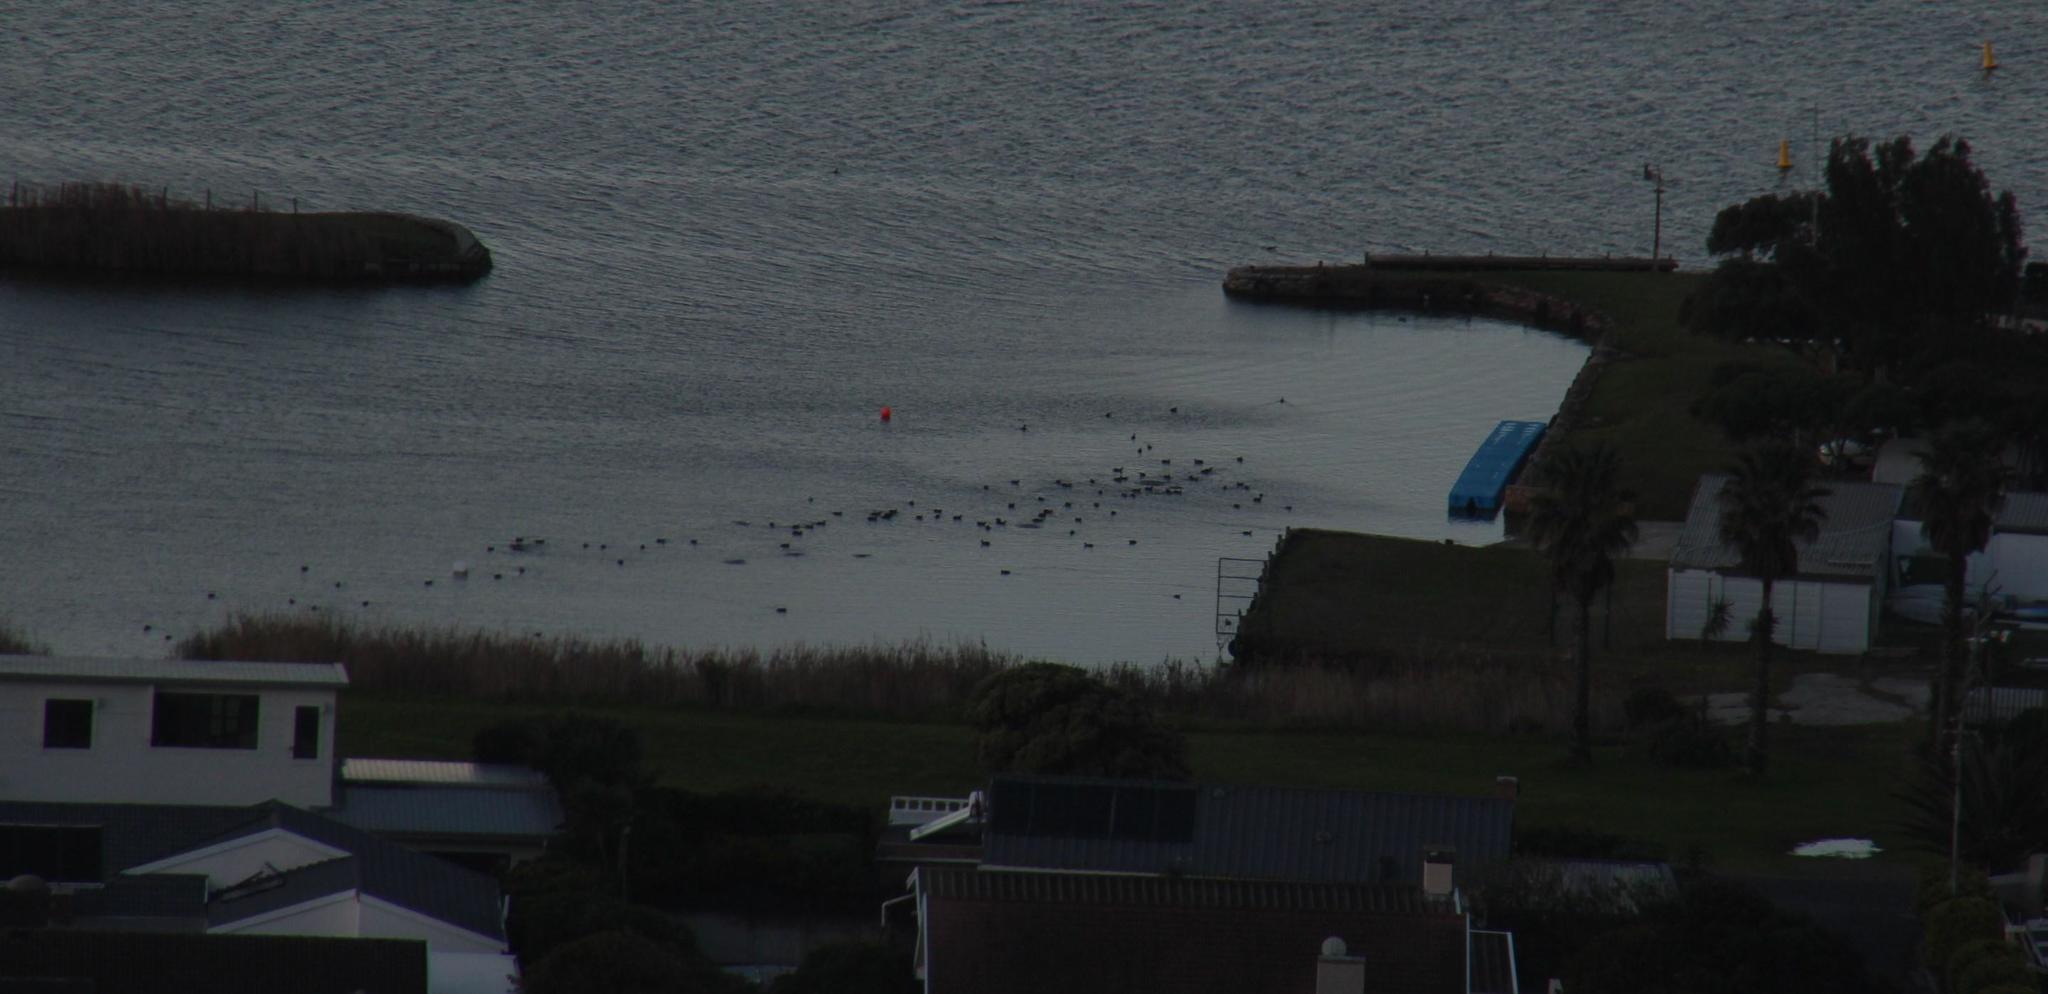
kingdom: Animalia
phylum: Chordata
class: Aves
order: Gruiformes
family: Rallidae
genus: Fulica
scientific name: Fulica cristata
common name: Red-knobbed coot
